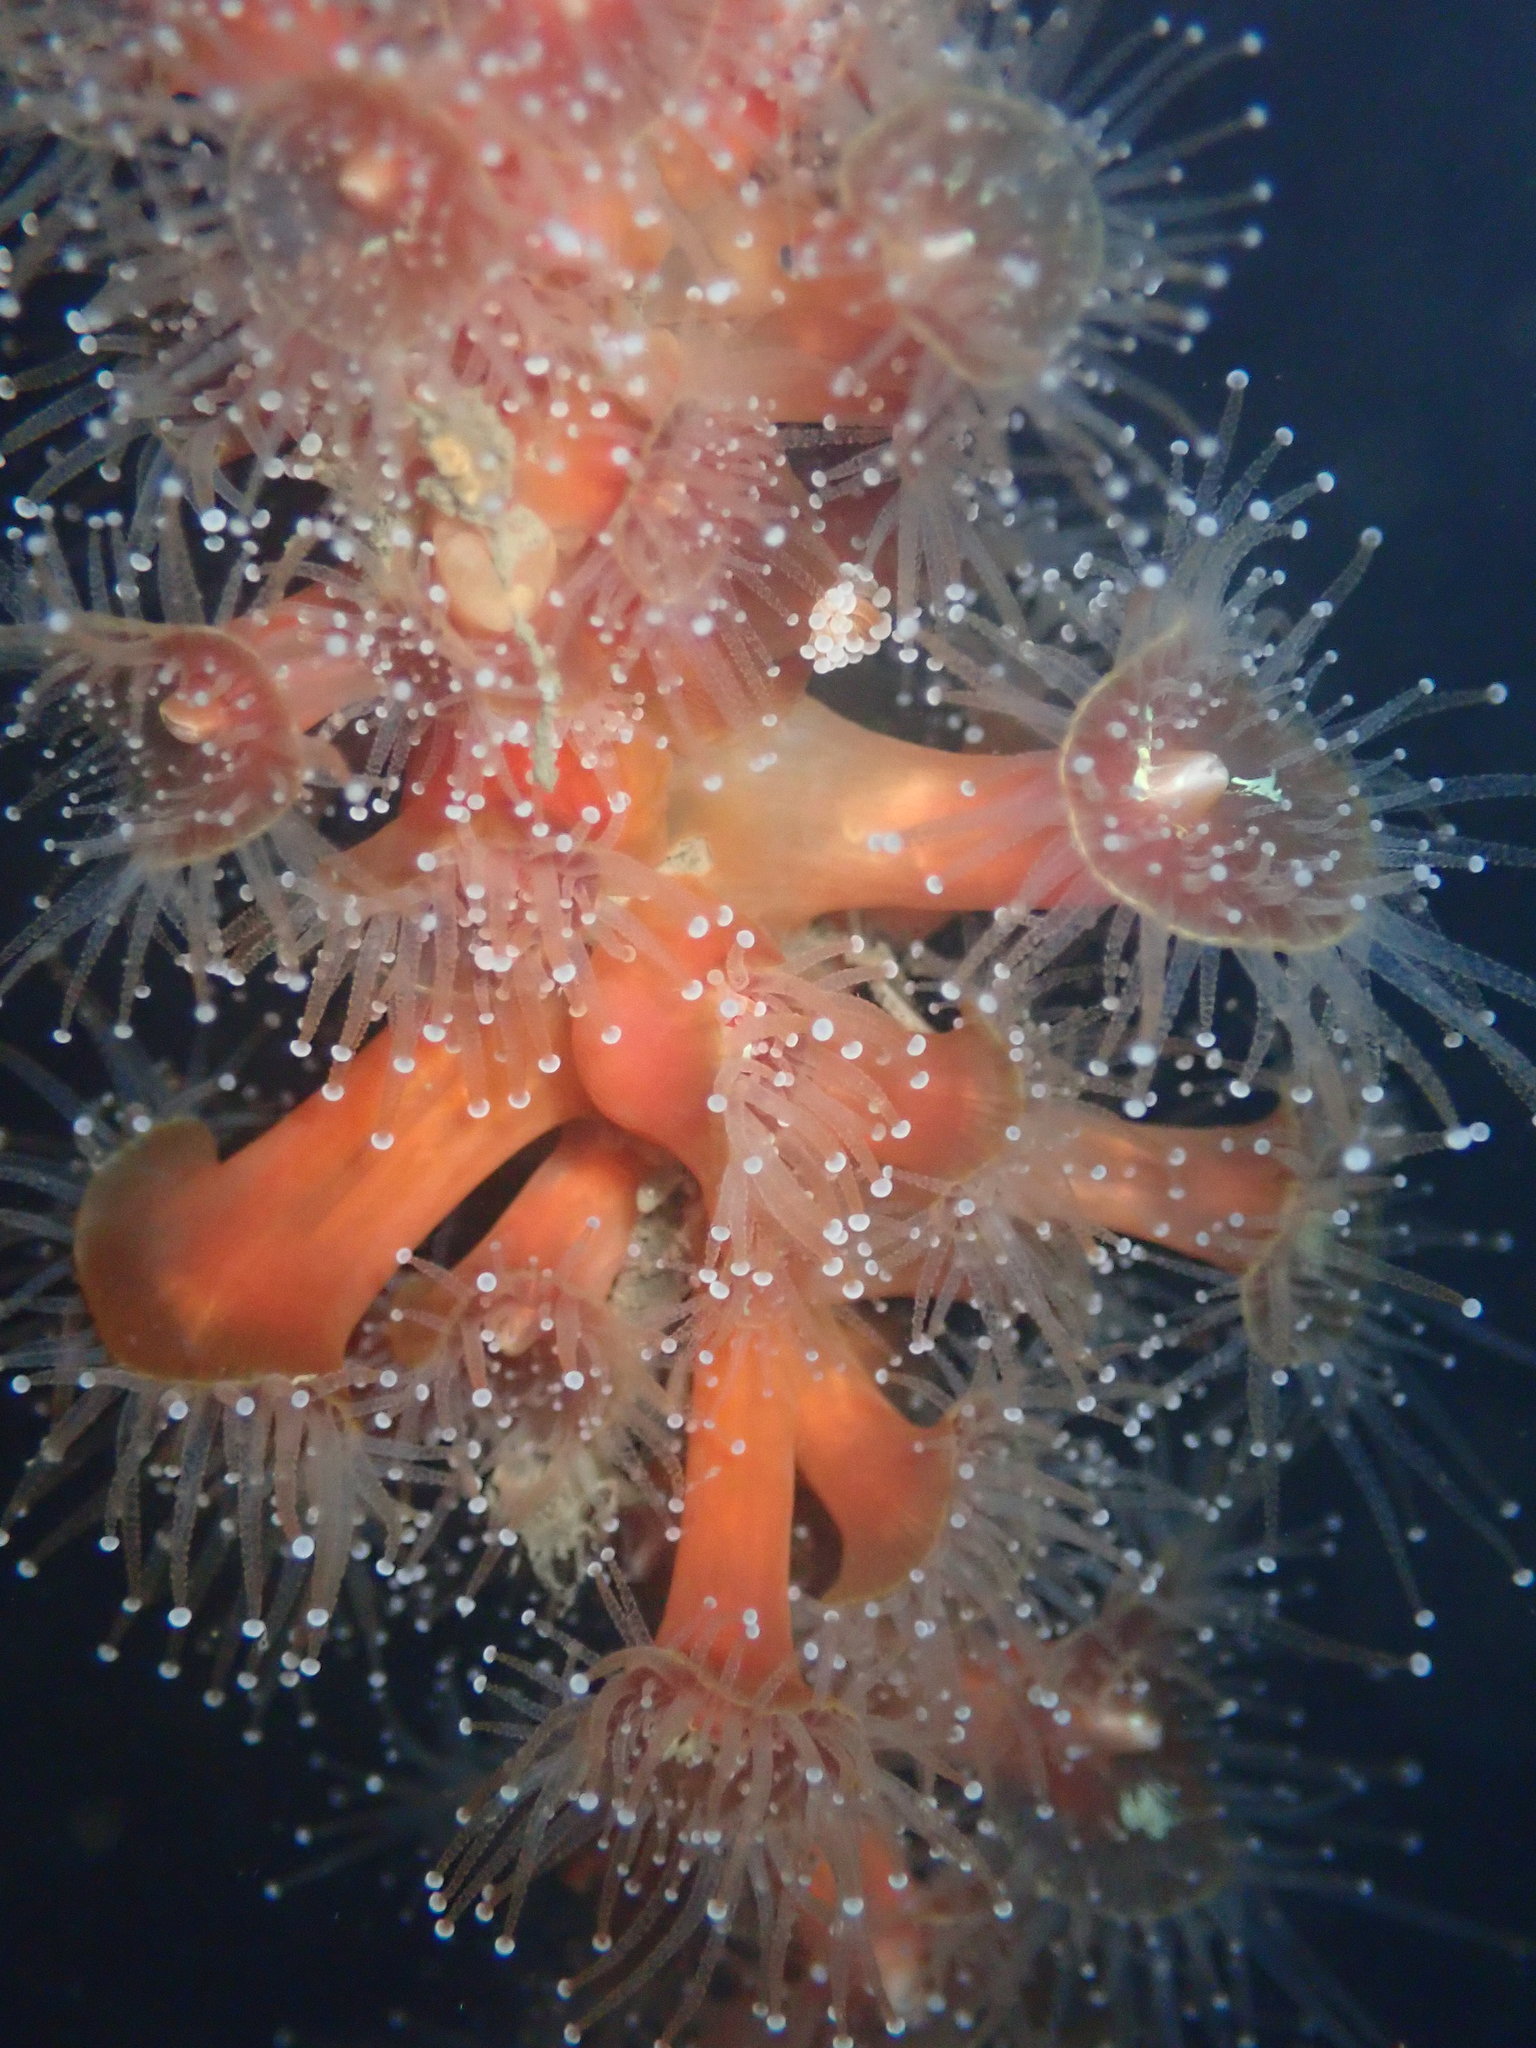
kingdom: Animalia
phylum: Cnidaria
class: Anthozoa
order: Corallimorpharia
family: Corallimorphidae
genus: Corynactis
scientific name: Corynactis californica
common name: Strawberry corallimorpharian
